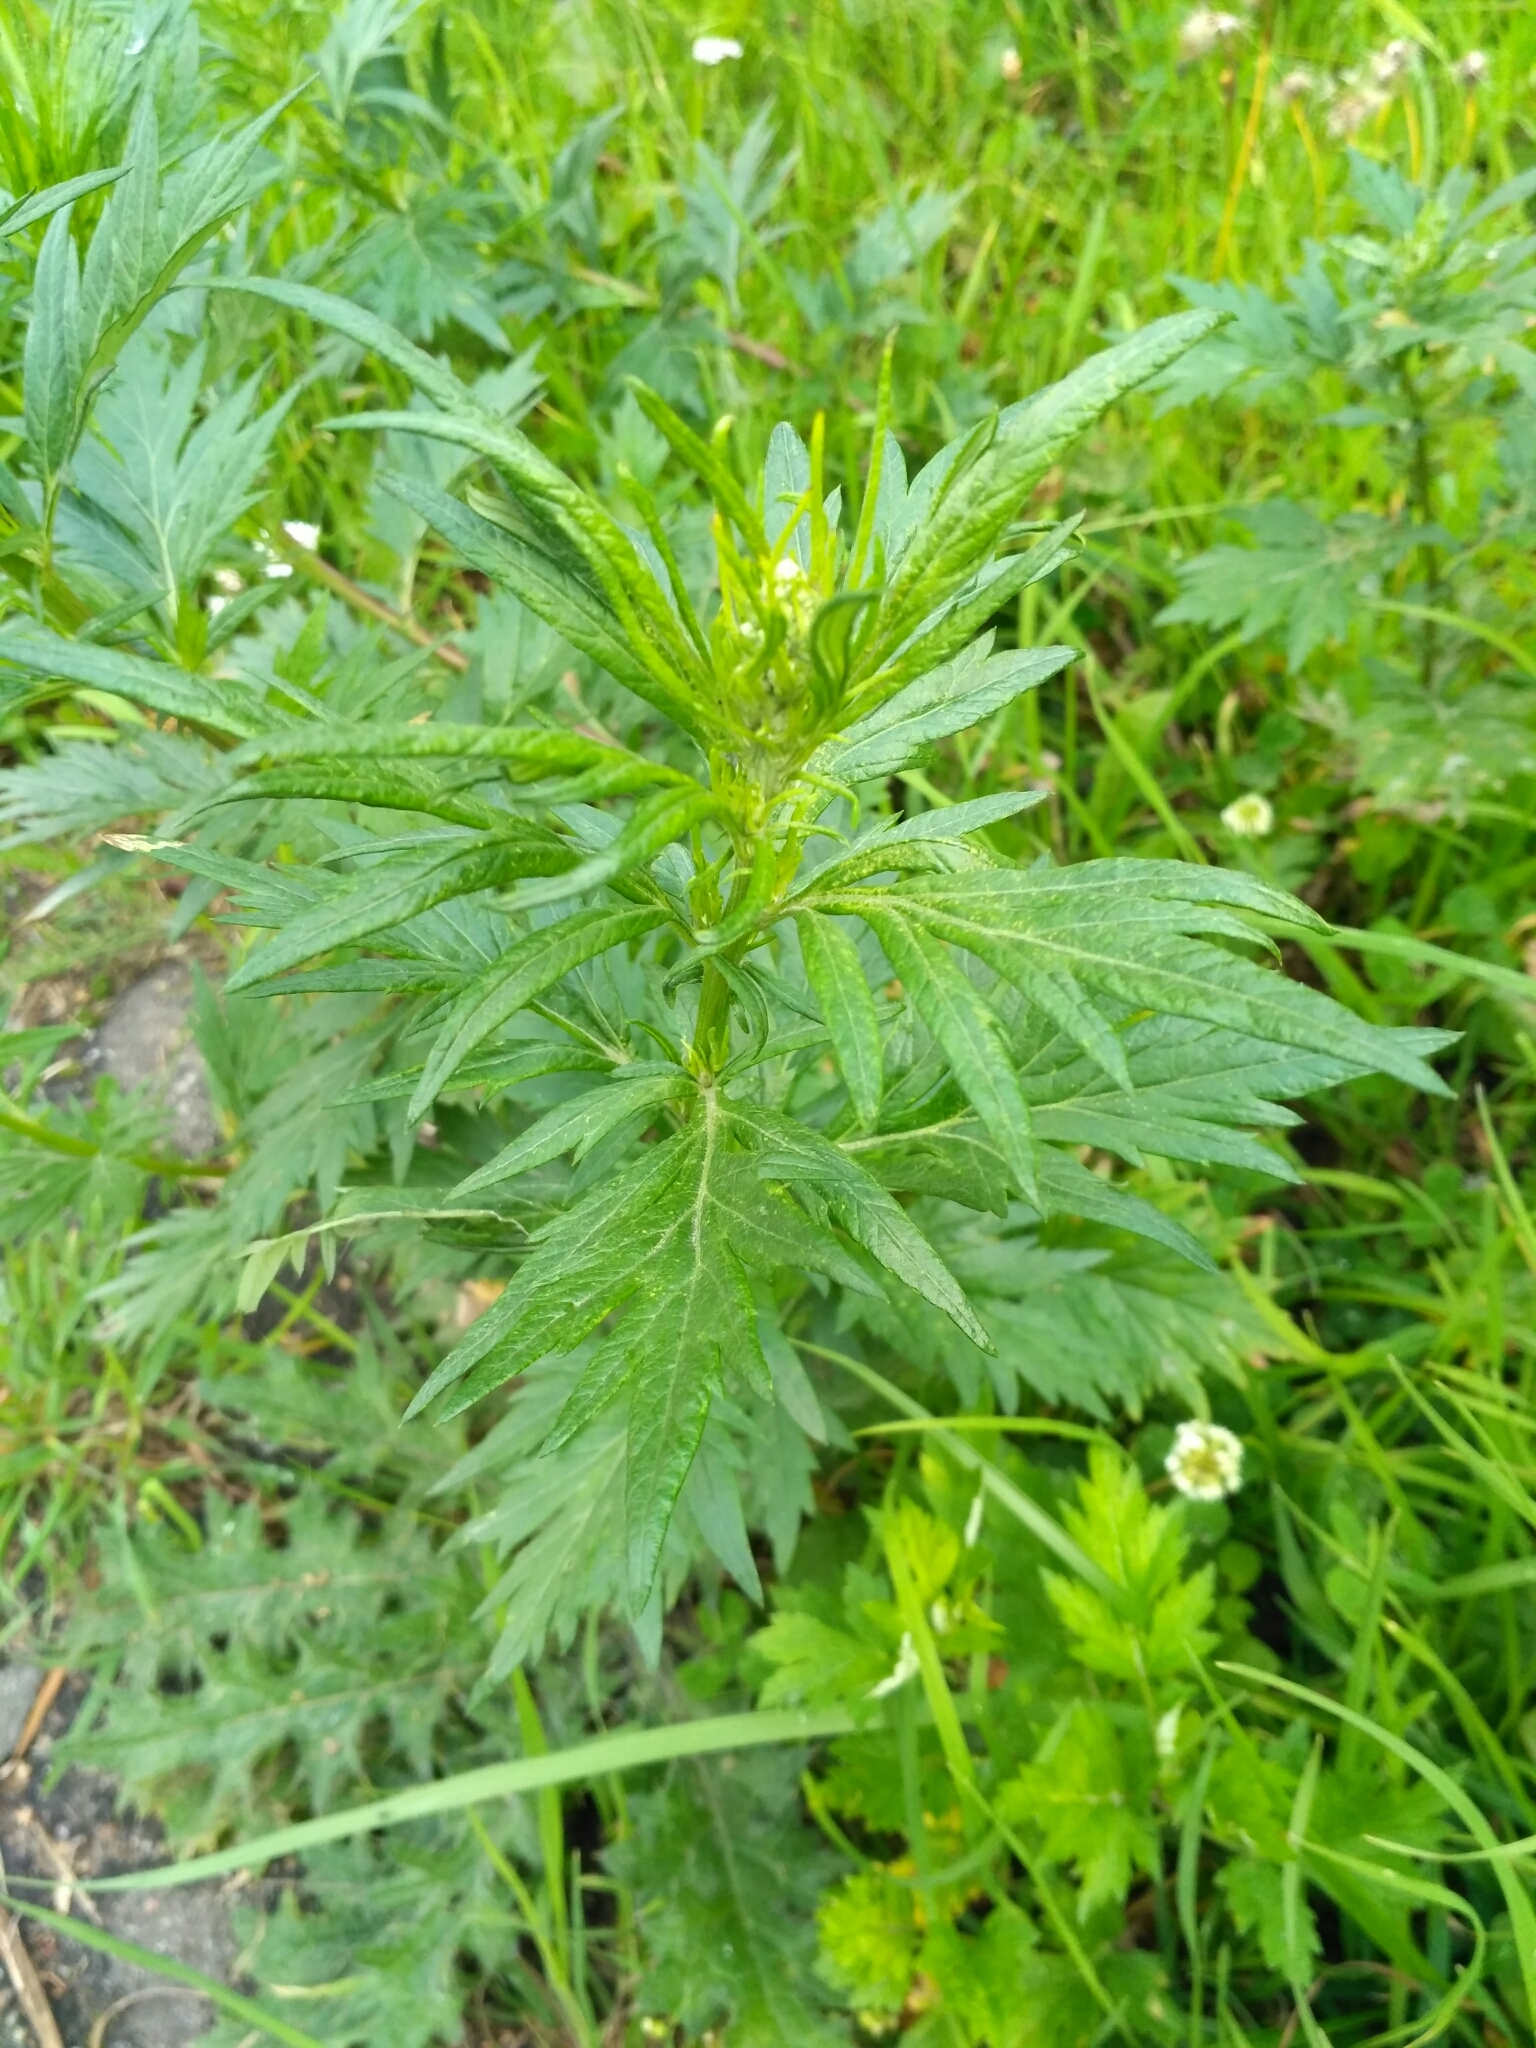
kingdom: Plantae
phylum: Tracheophyta
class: Magnoliopsida
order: Asterales
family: Asteraceae
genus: Artemisia
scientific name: Artemisia vulgaris
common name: Mugwort
